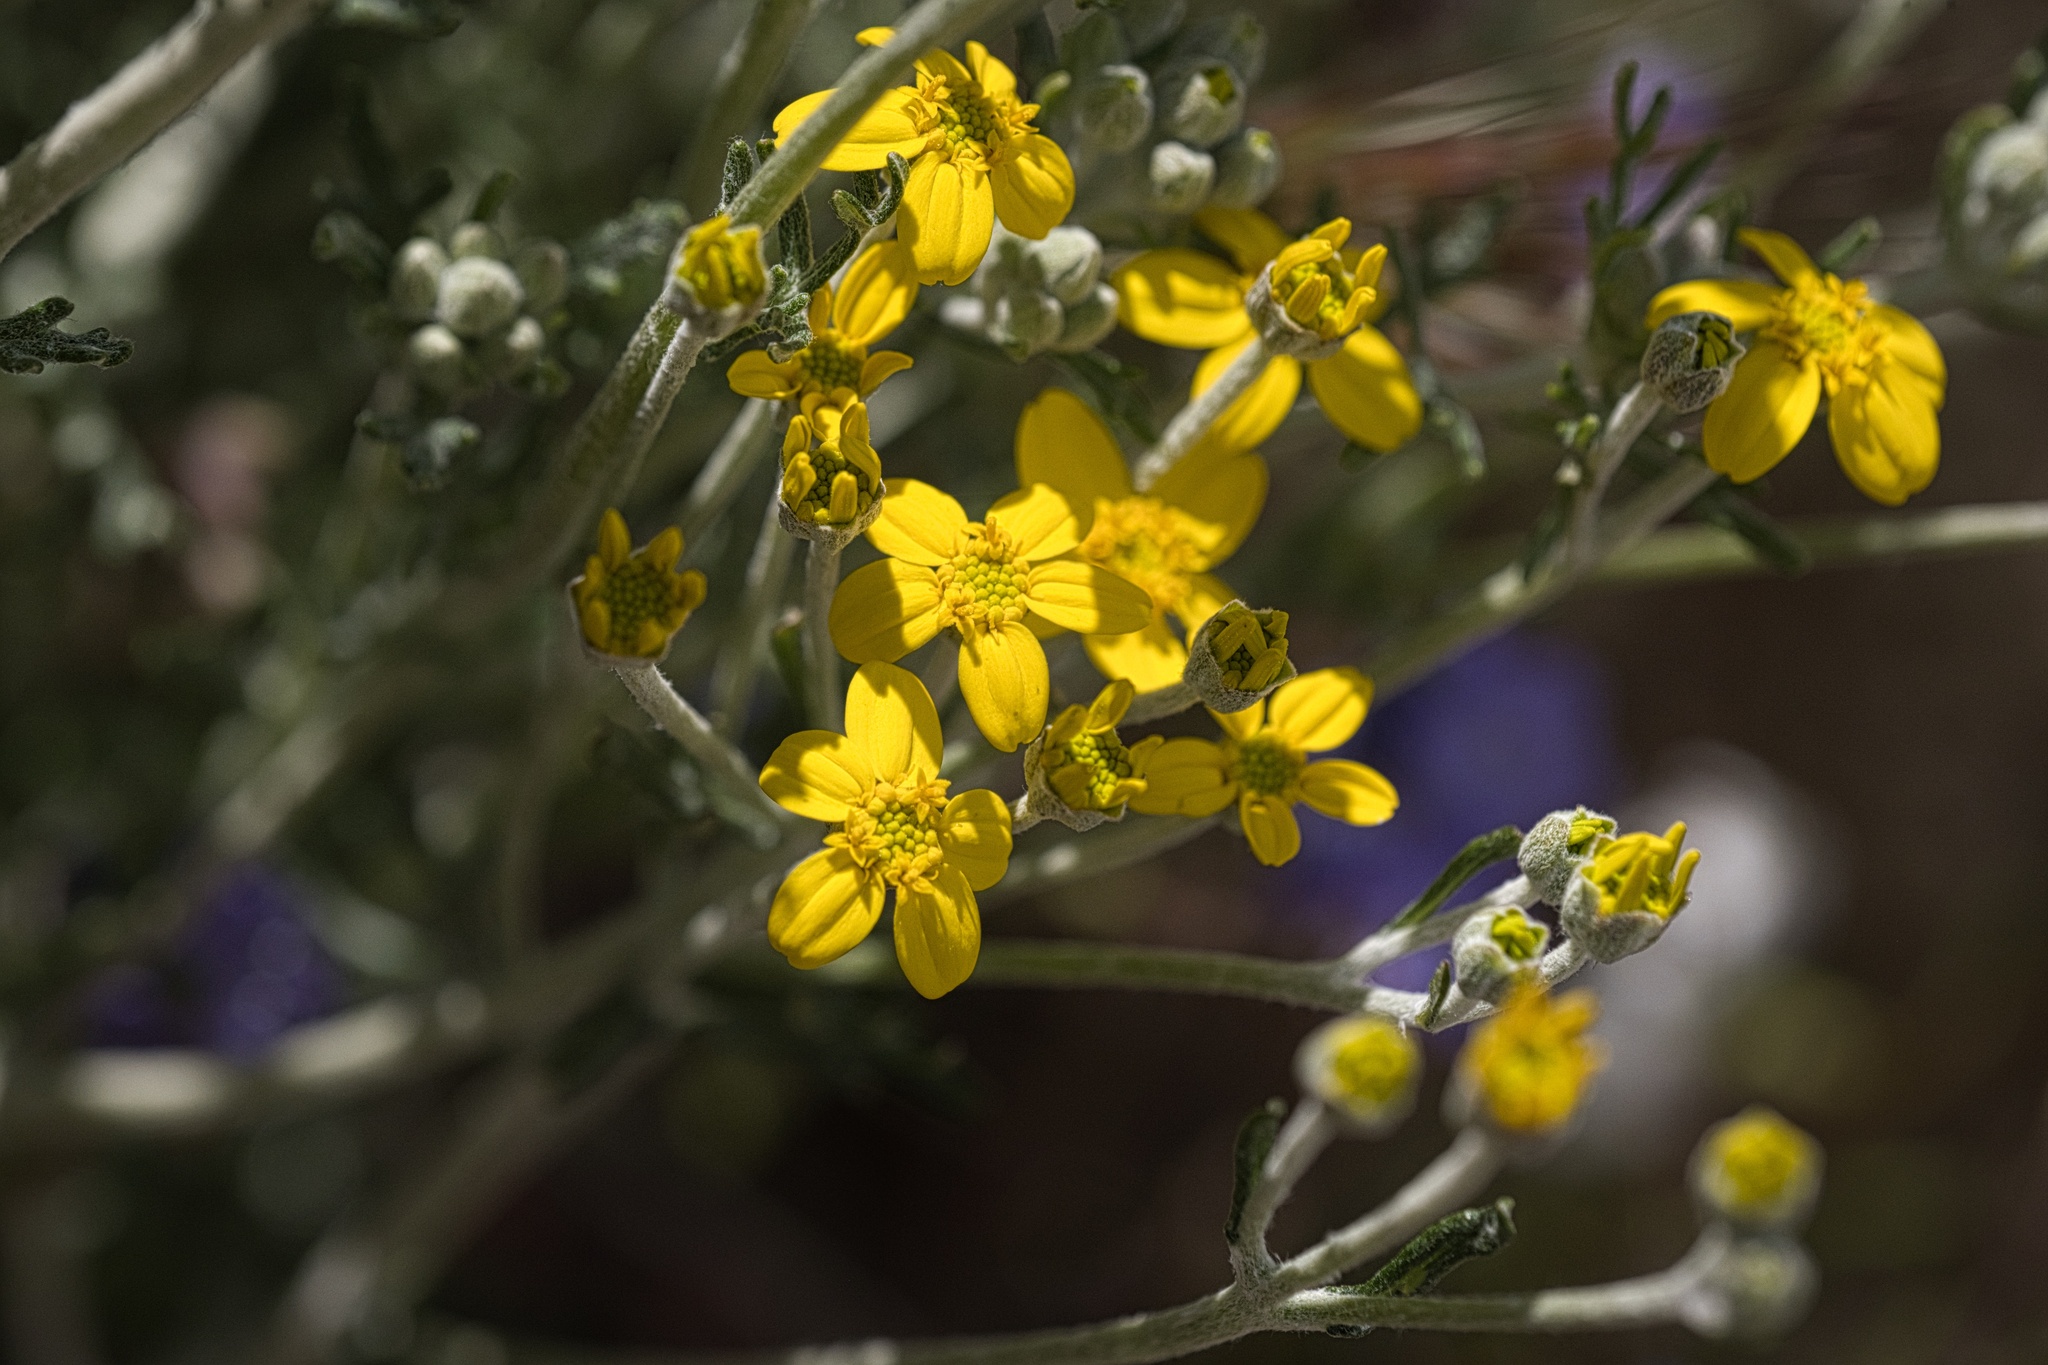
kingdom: Plantae
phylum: Tracheophyta
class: Magnoliopsida
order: Asterales
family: Asteraceae
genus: Eriophyllum
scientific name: Eriophyllum confertiflorum
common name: Golden-yarrow
